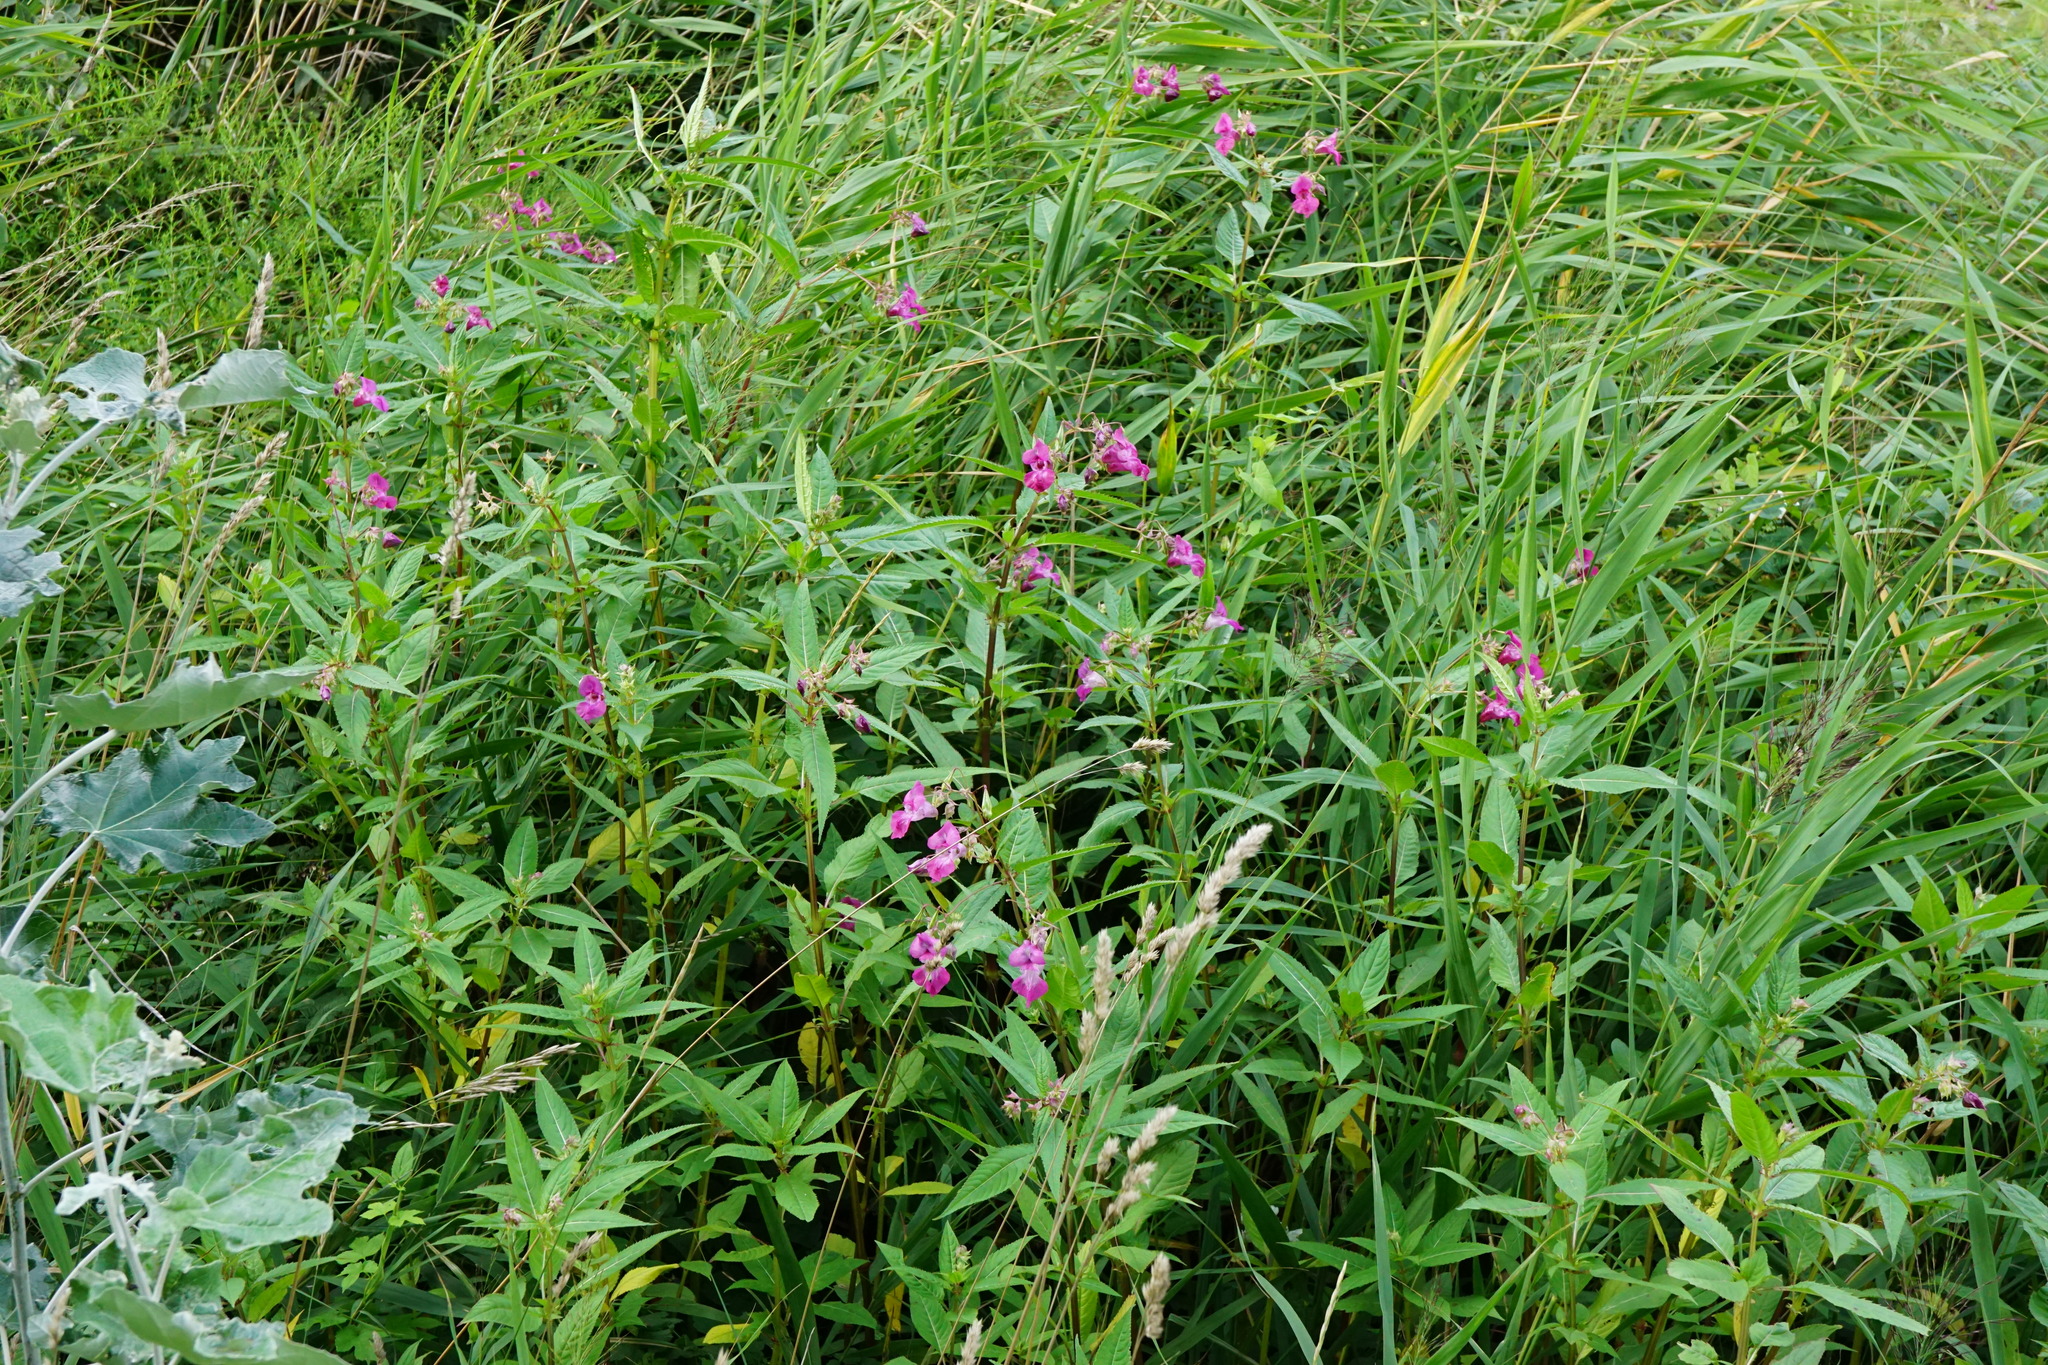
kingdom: Plantae
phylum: Tracheophyta
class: Magnoliopsida
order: Ericales
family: Balsaminaceae
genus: Impatiens
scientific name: Impatiens glandulifera
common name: Himalayan balsam
